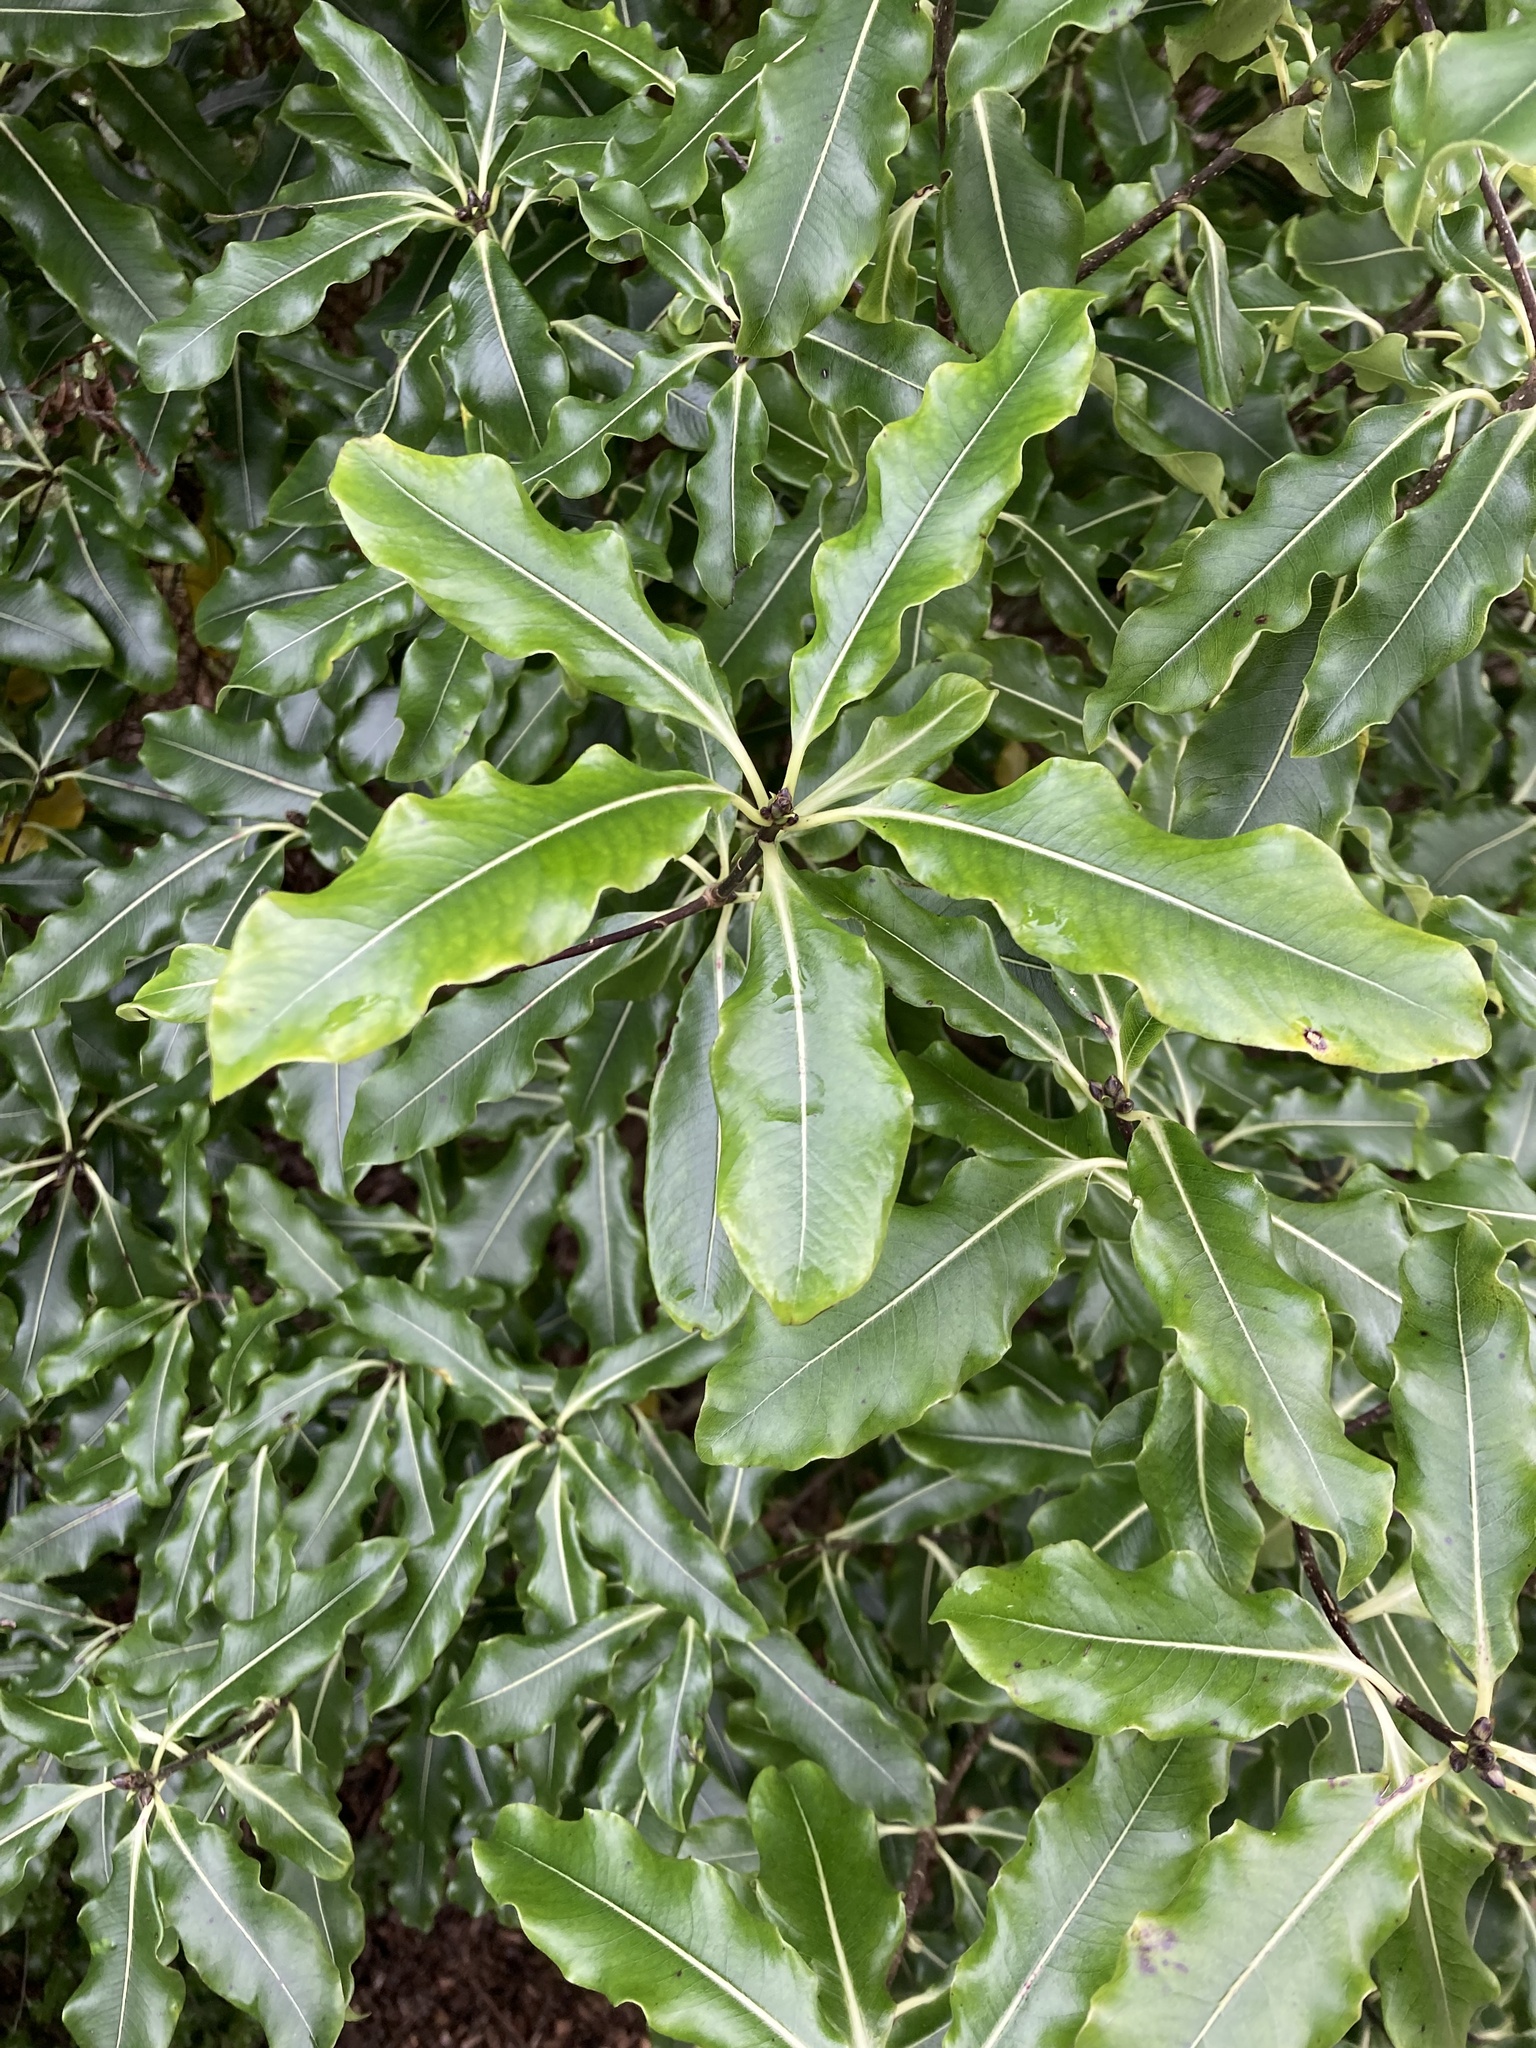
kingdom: Plantae
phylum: Tracheophyta
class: Magnoliopsida
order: Apiales
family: Pittosporaceae
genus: Pittosporum
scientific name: Pittosporum eugenioides
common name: Lemonwood
